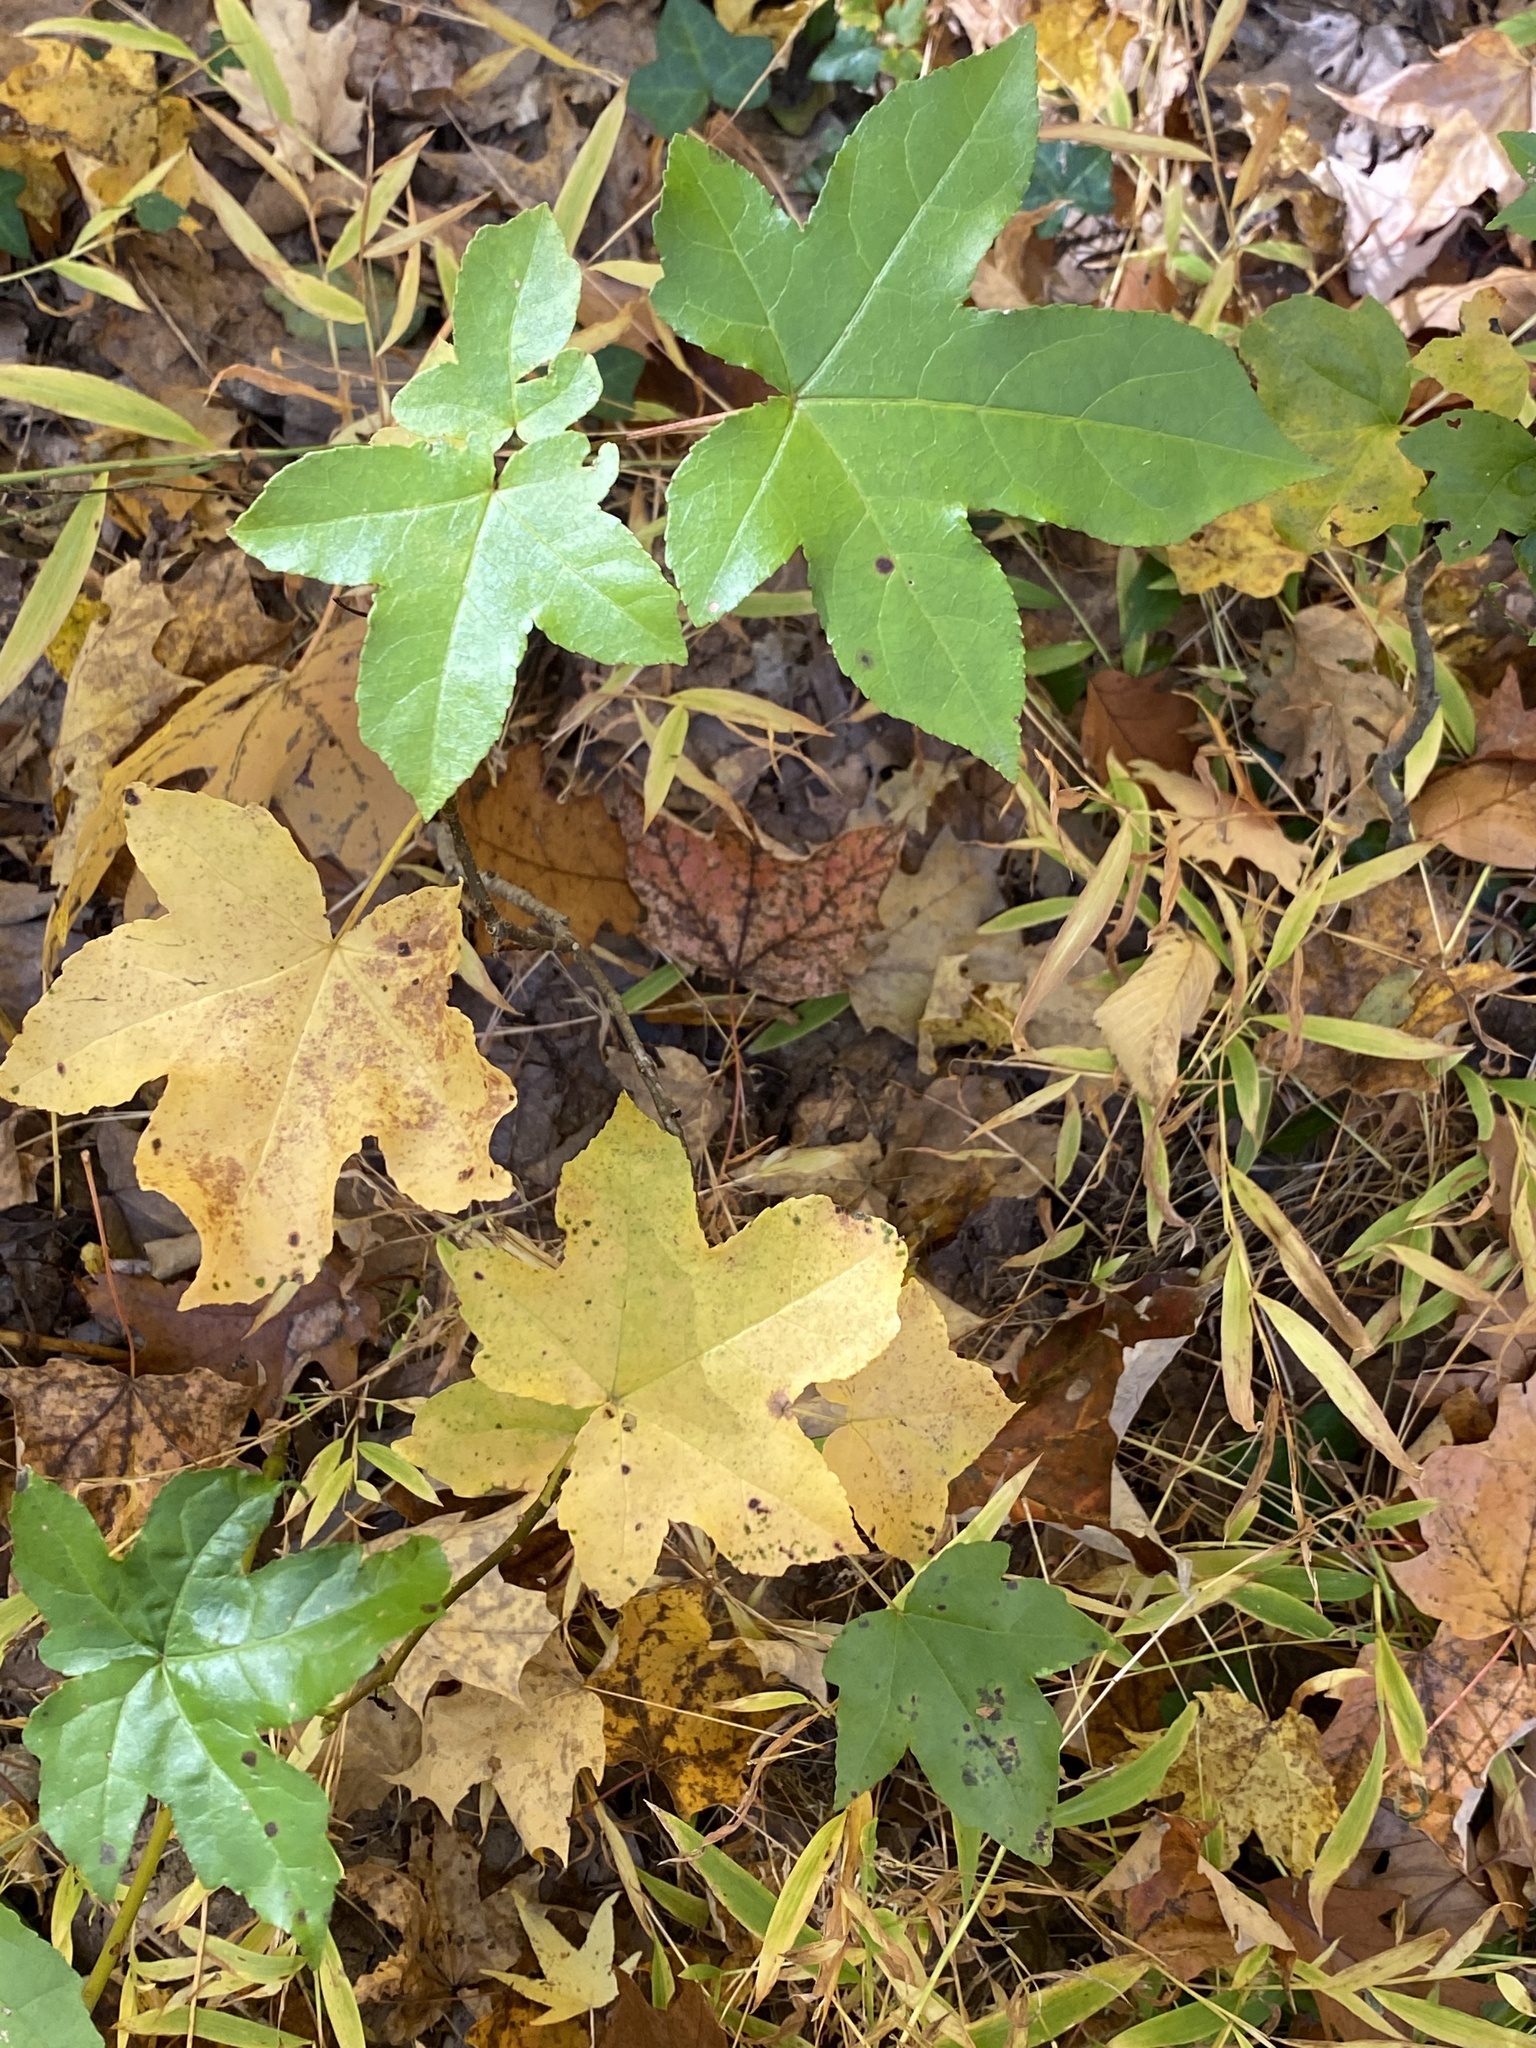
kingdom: Plantae
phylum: Tracheophyta
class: Magnoliopsida
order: Saxifragales
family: Altingiaceae
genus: Liquidambar
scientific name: Liquidambar styraciflua
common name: Sweet gum
